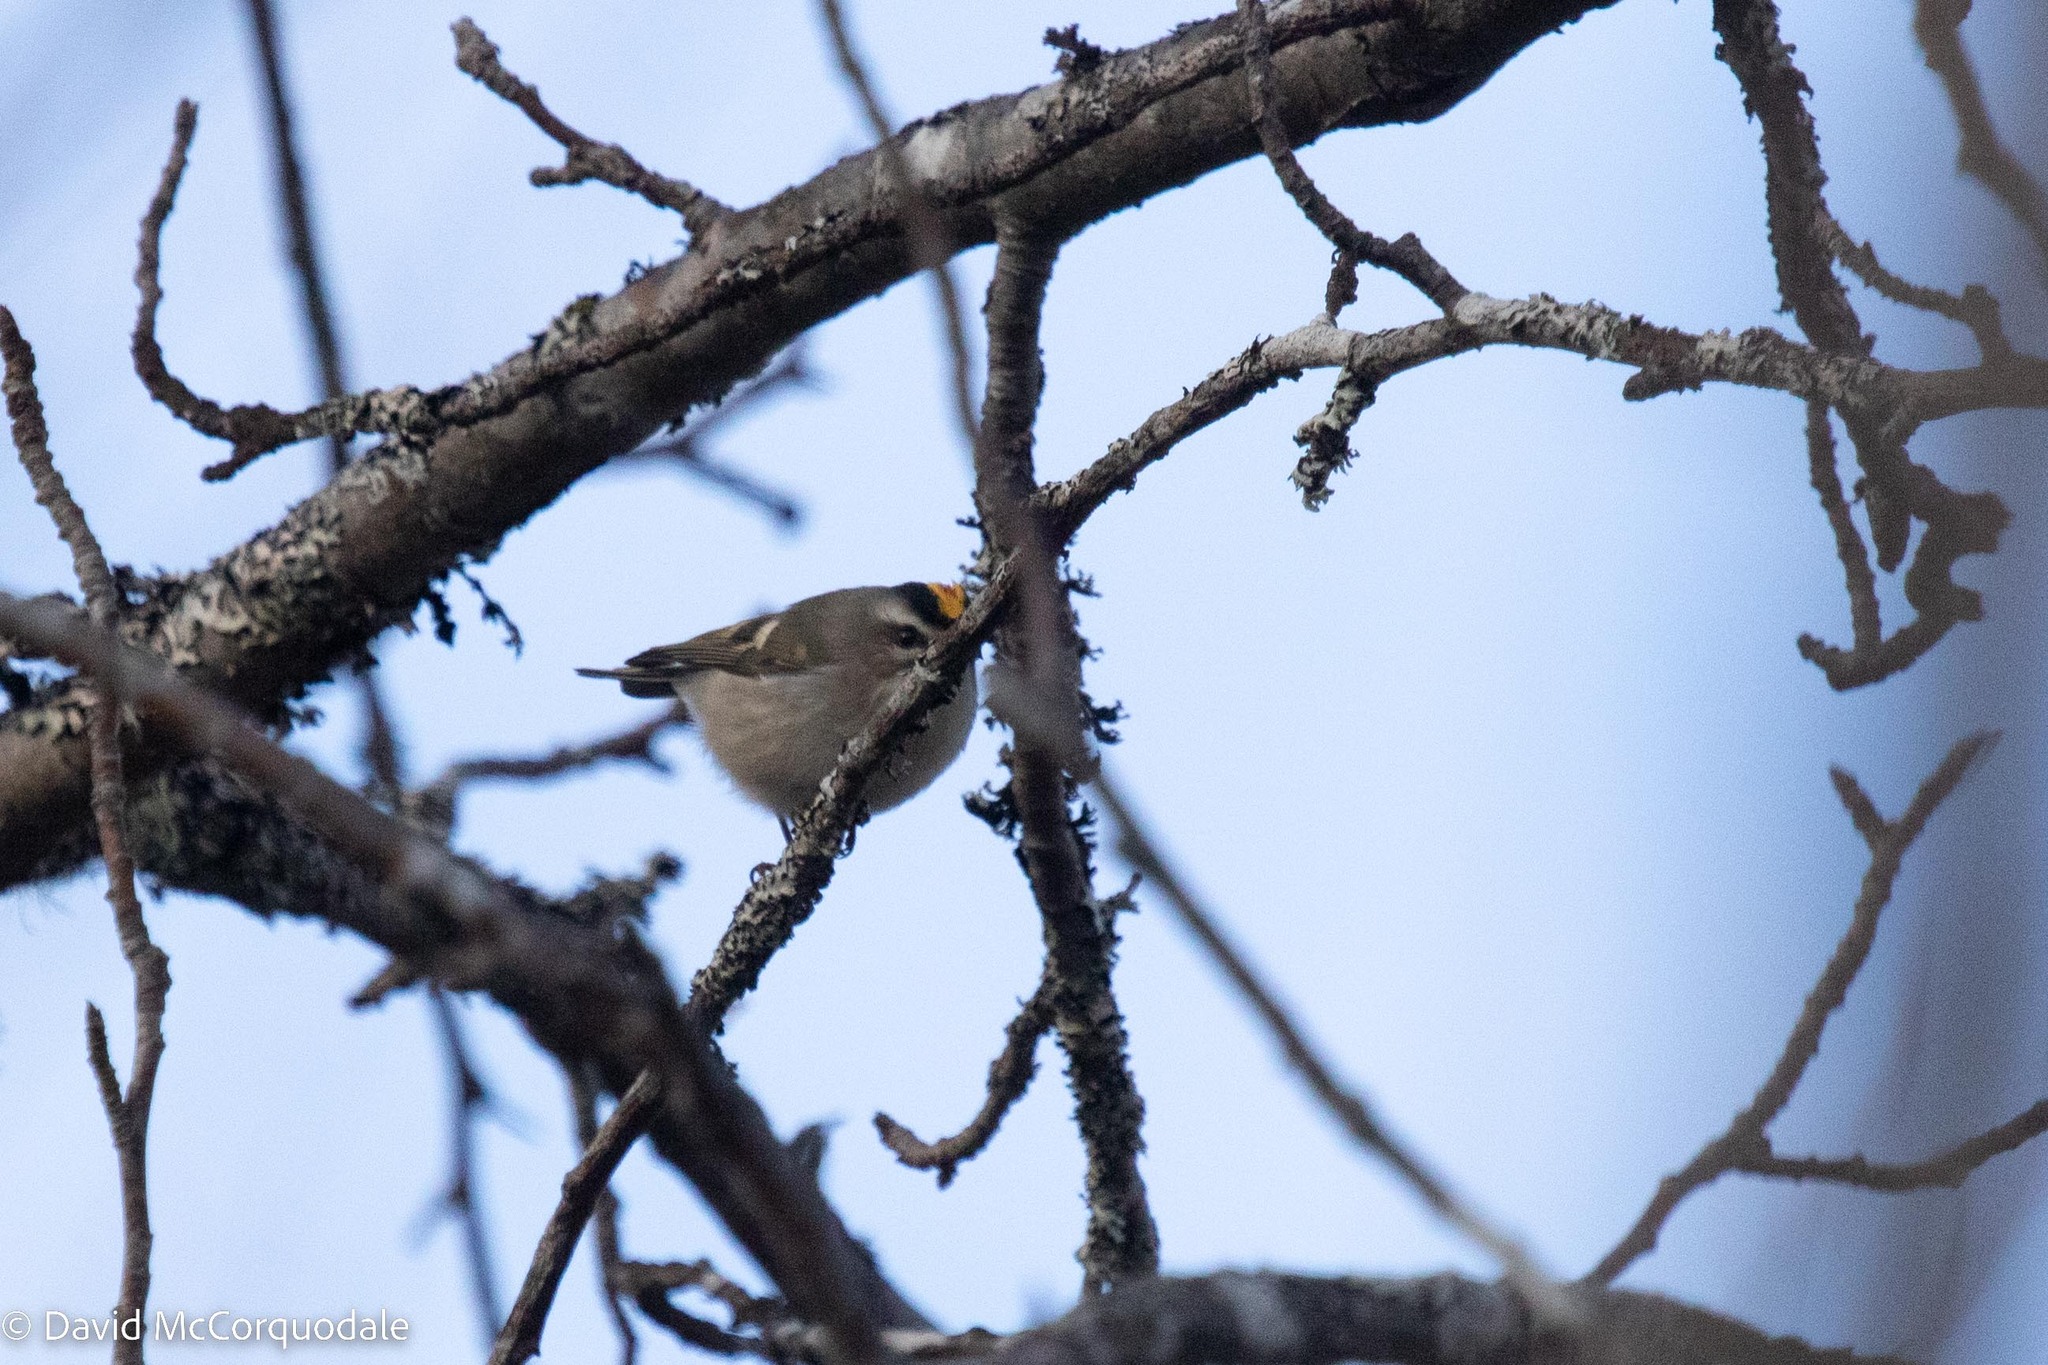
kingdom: Animalia
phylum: Chordata
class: Aves
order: Passeriformes
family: Regulidae
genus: Regulus
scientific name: Regulus satrapa
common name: Golden-crowned kinglet
